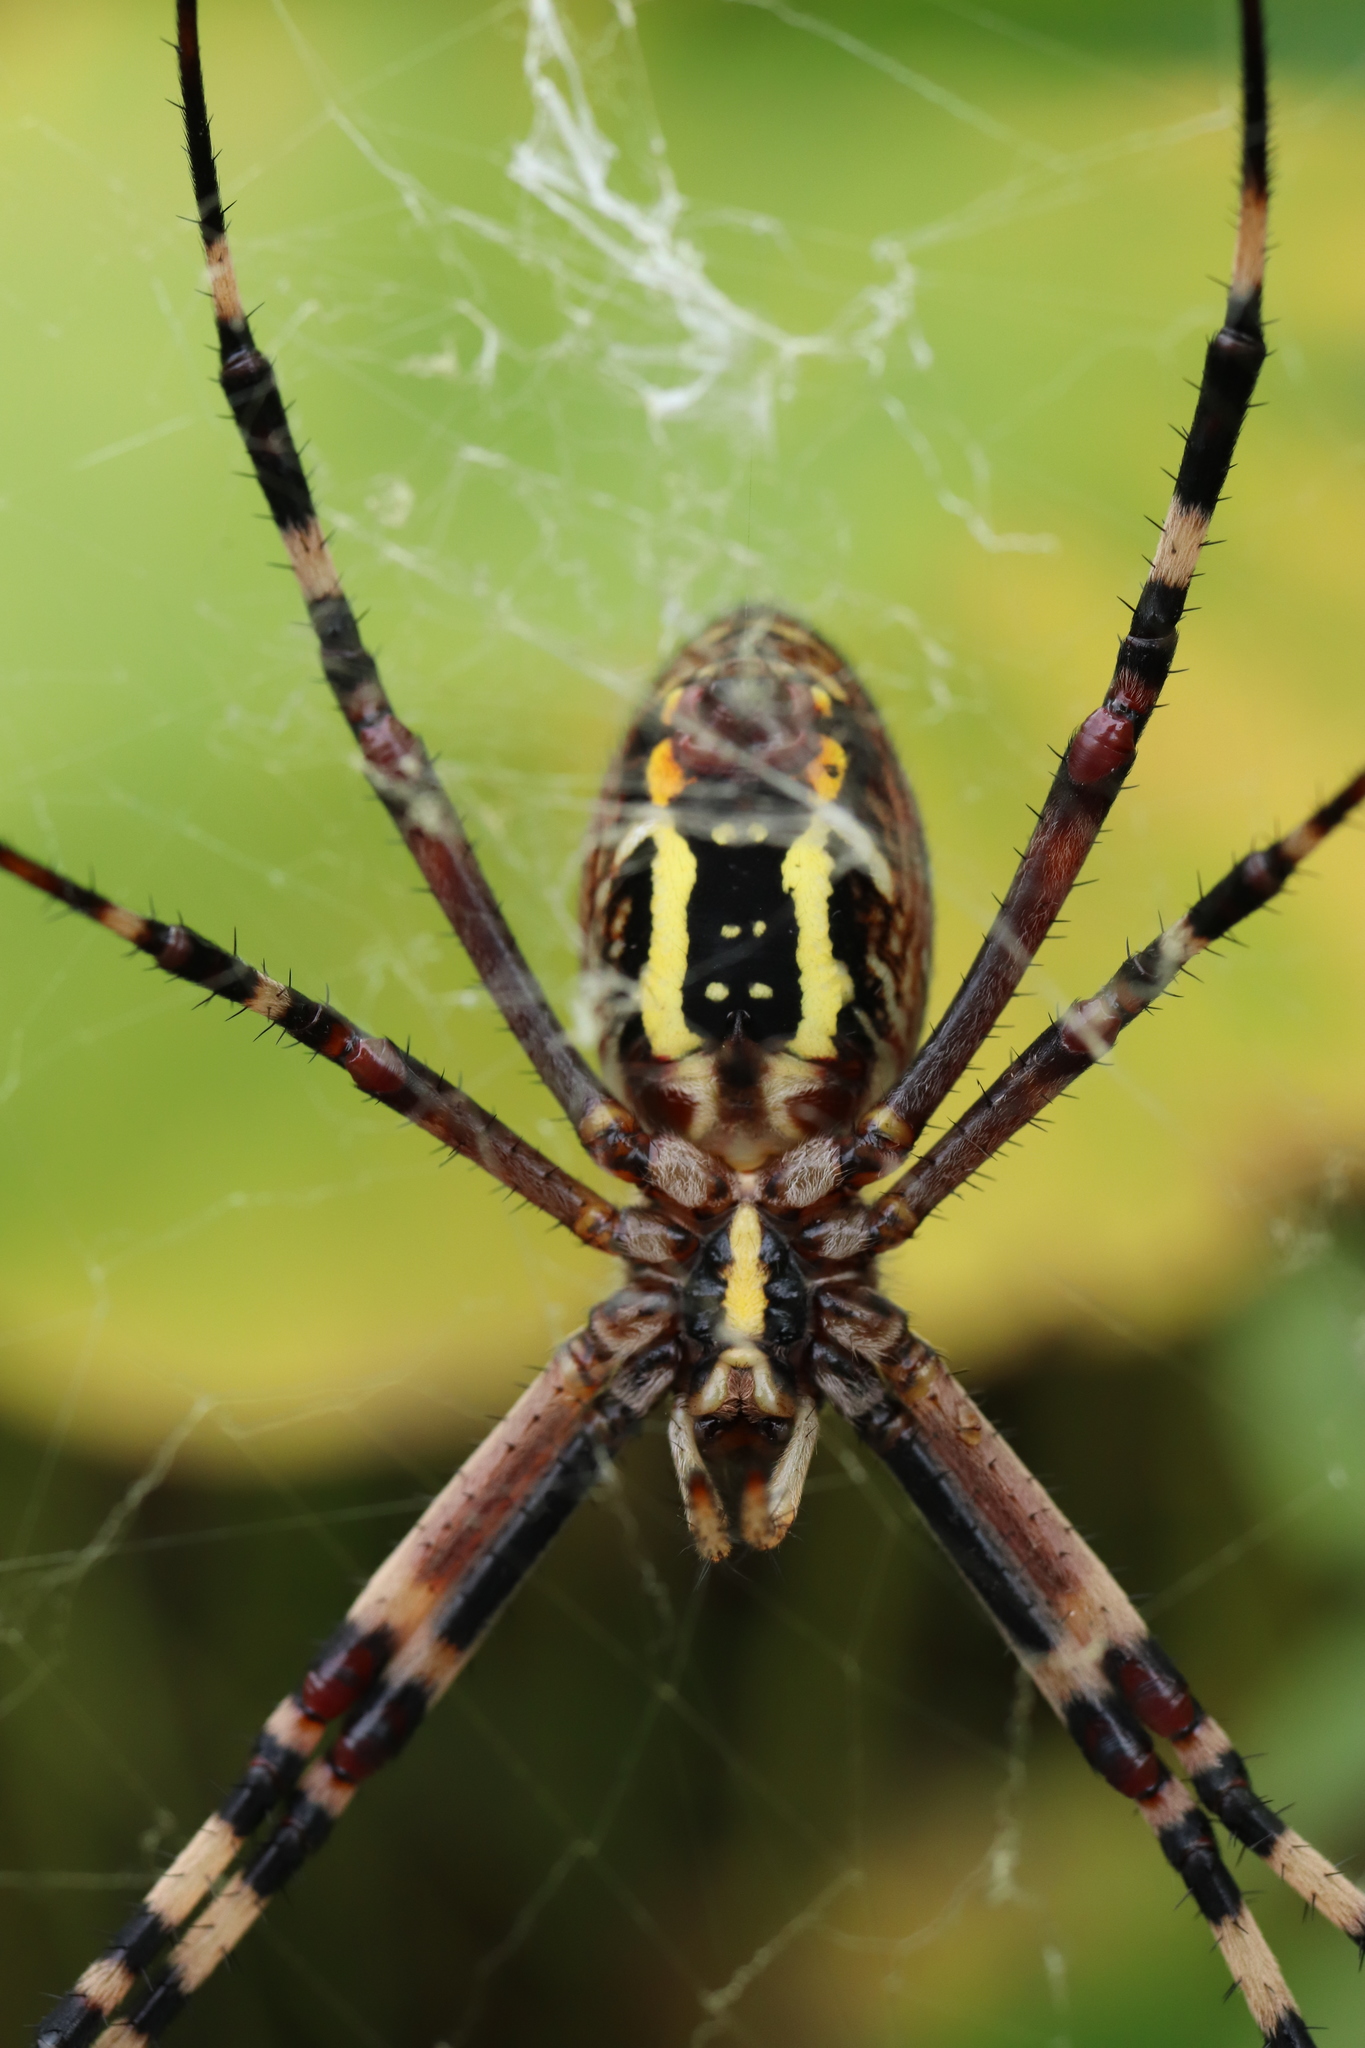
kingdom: Animalia
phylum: Arthropoda
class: Arachnida
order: Araneae
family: Araneidae
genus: Argiope
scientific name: Argiope bruennichi
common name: Wasp spider
